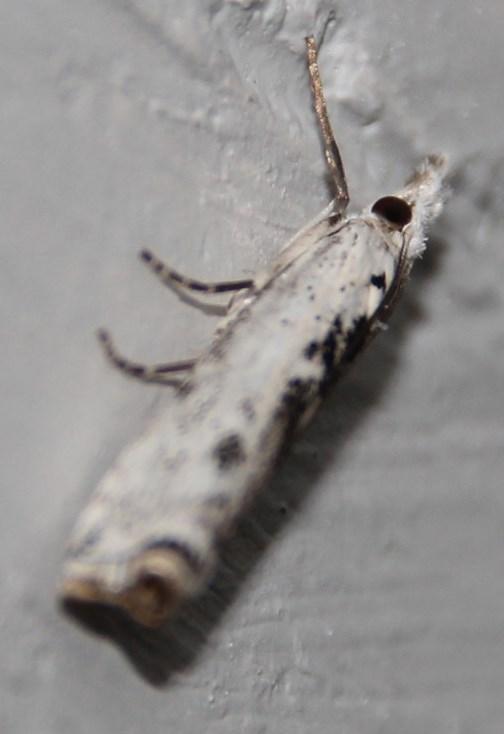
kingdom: Animalia
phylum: Arthropoda
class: Insecta
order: Lepidoptera
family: Crambidae
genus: Crambus
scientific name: Crambus sparsellus
